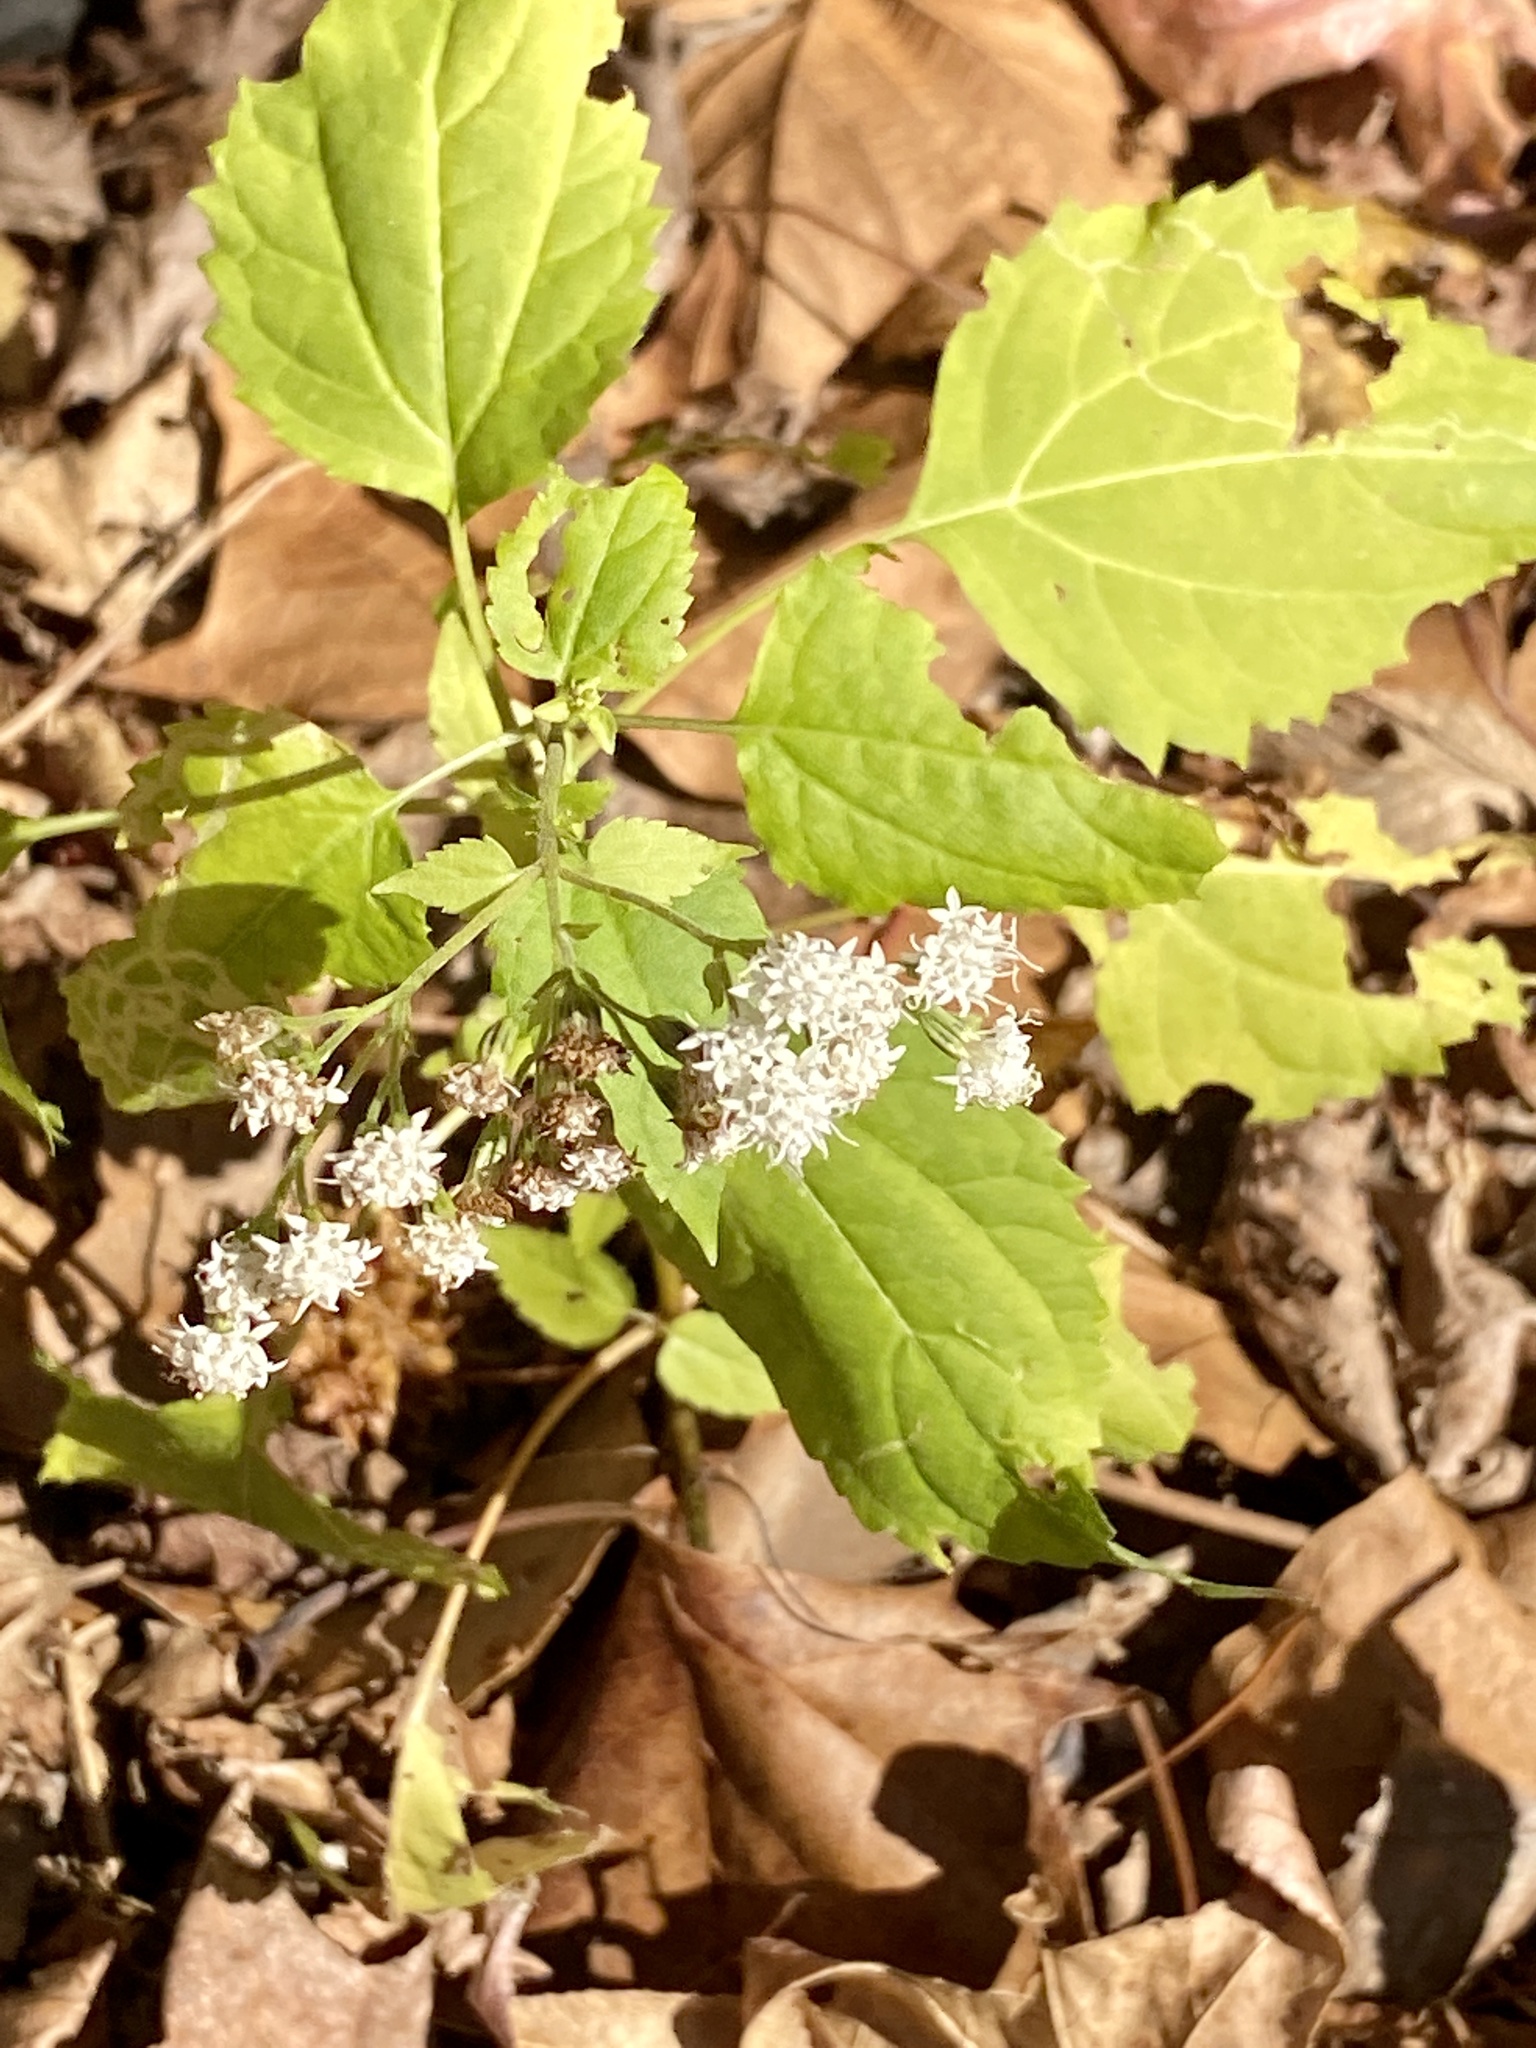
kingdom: Plantae
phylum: Tracheophyta
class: Magnoliopsida
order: Asterales
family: Asteraceae
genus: Ageratina
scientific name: Ageratina altissima
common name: White snakeroot
